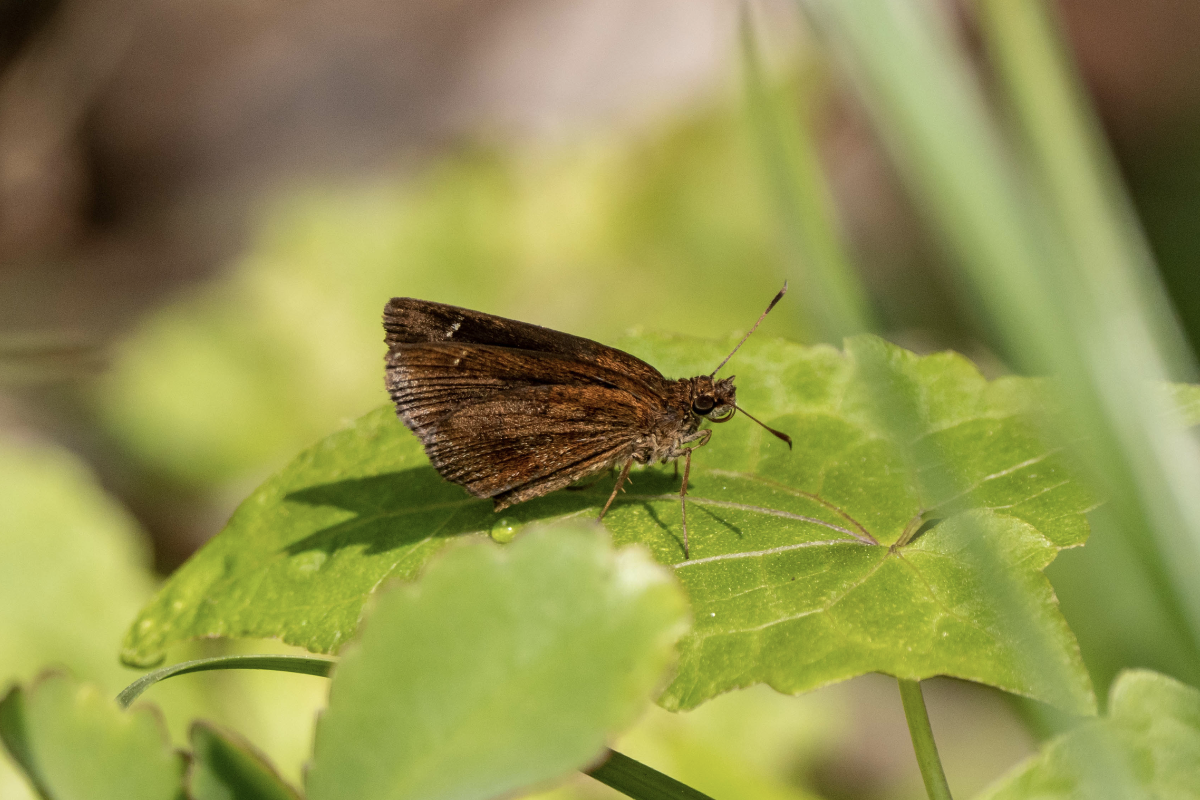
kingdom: Animalia
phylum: Arthropoda
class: Insecta
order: Lepidoptera
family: Hesperiidae
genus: Astictopterus
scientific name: Astictopterus jama
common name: Forest hopper
